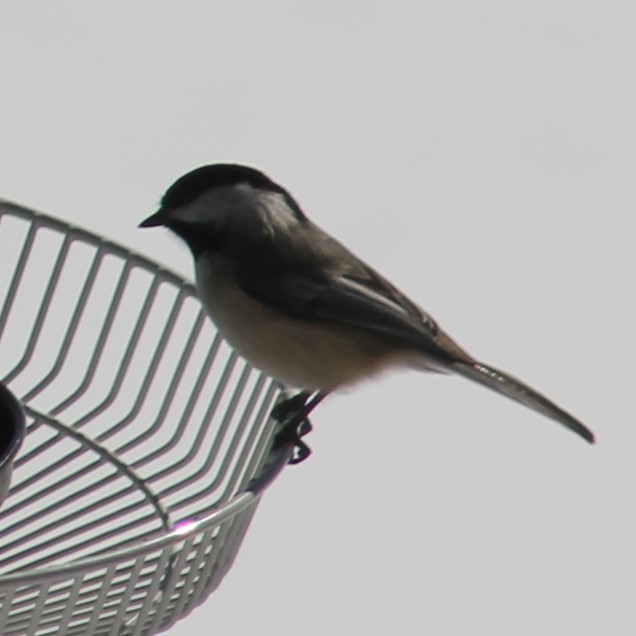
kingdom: Animalia
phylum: Chordata
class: Aves
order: Passeriformes
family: Paridae
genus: Poecile
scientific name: Poecile atricapillus
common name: Black-capped chickadee
